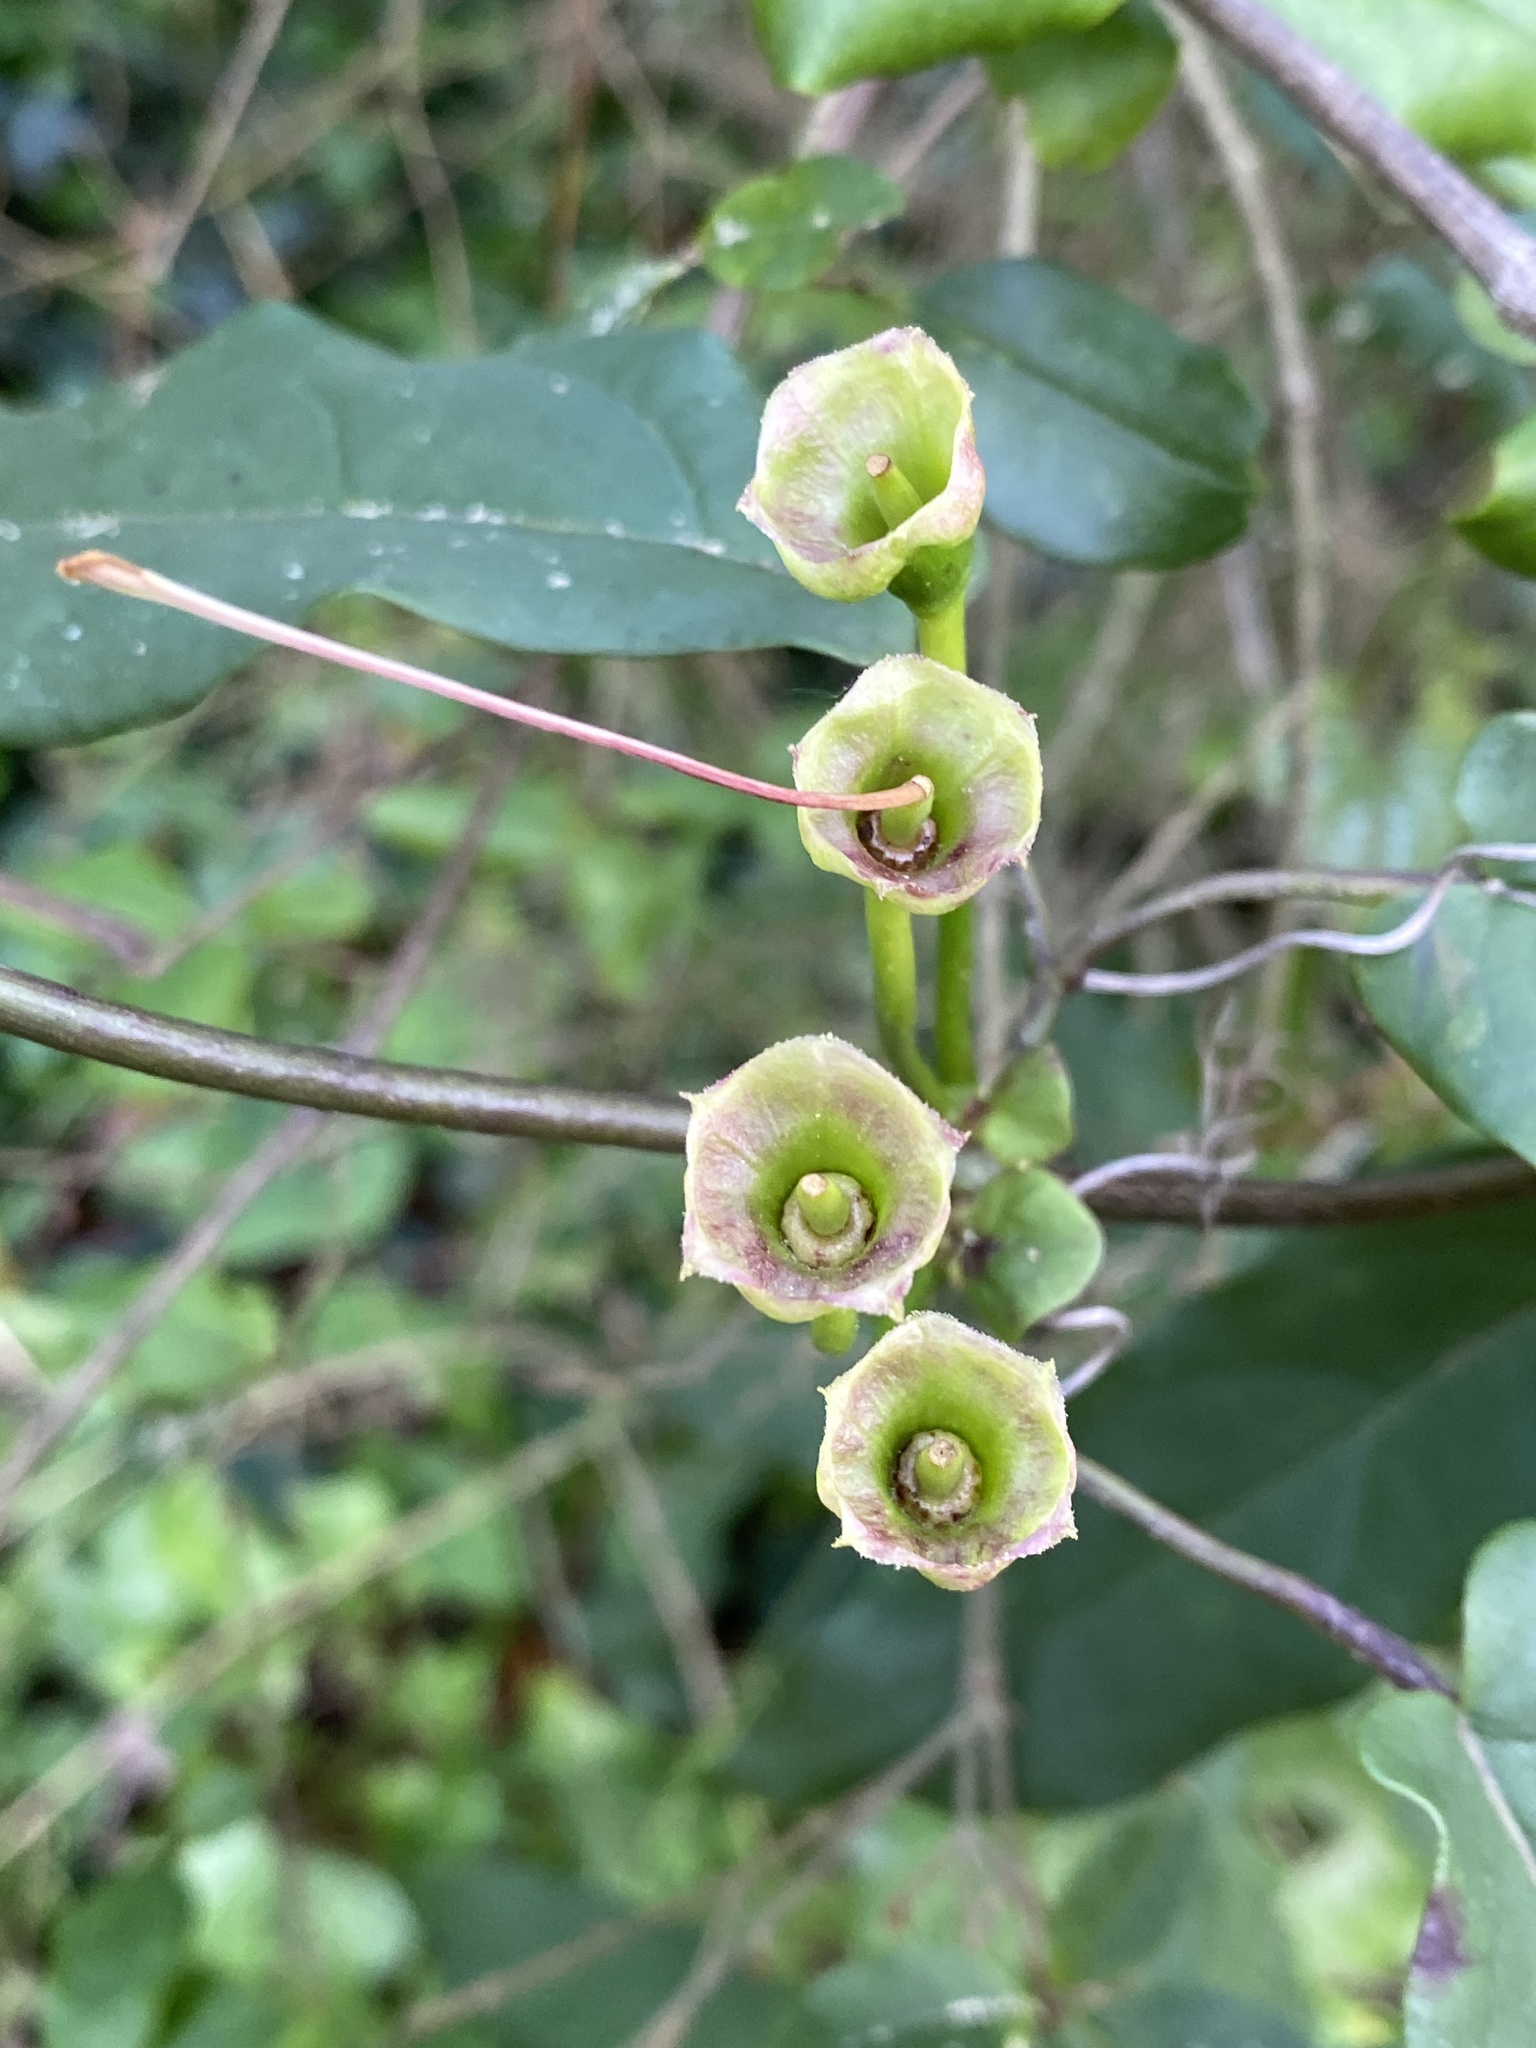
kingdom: Plantae
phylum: Tracheophyta
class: Magnoliopsida
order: Lamiales
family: Bignoniaceae
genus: Bignonia
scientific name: Bignonia capreolata
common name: Crossvine
